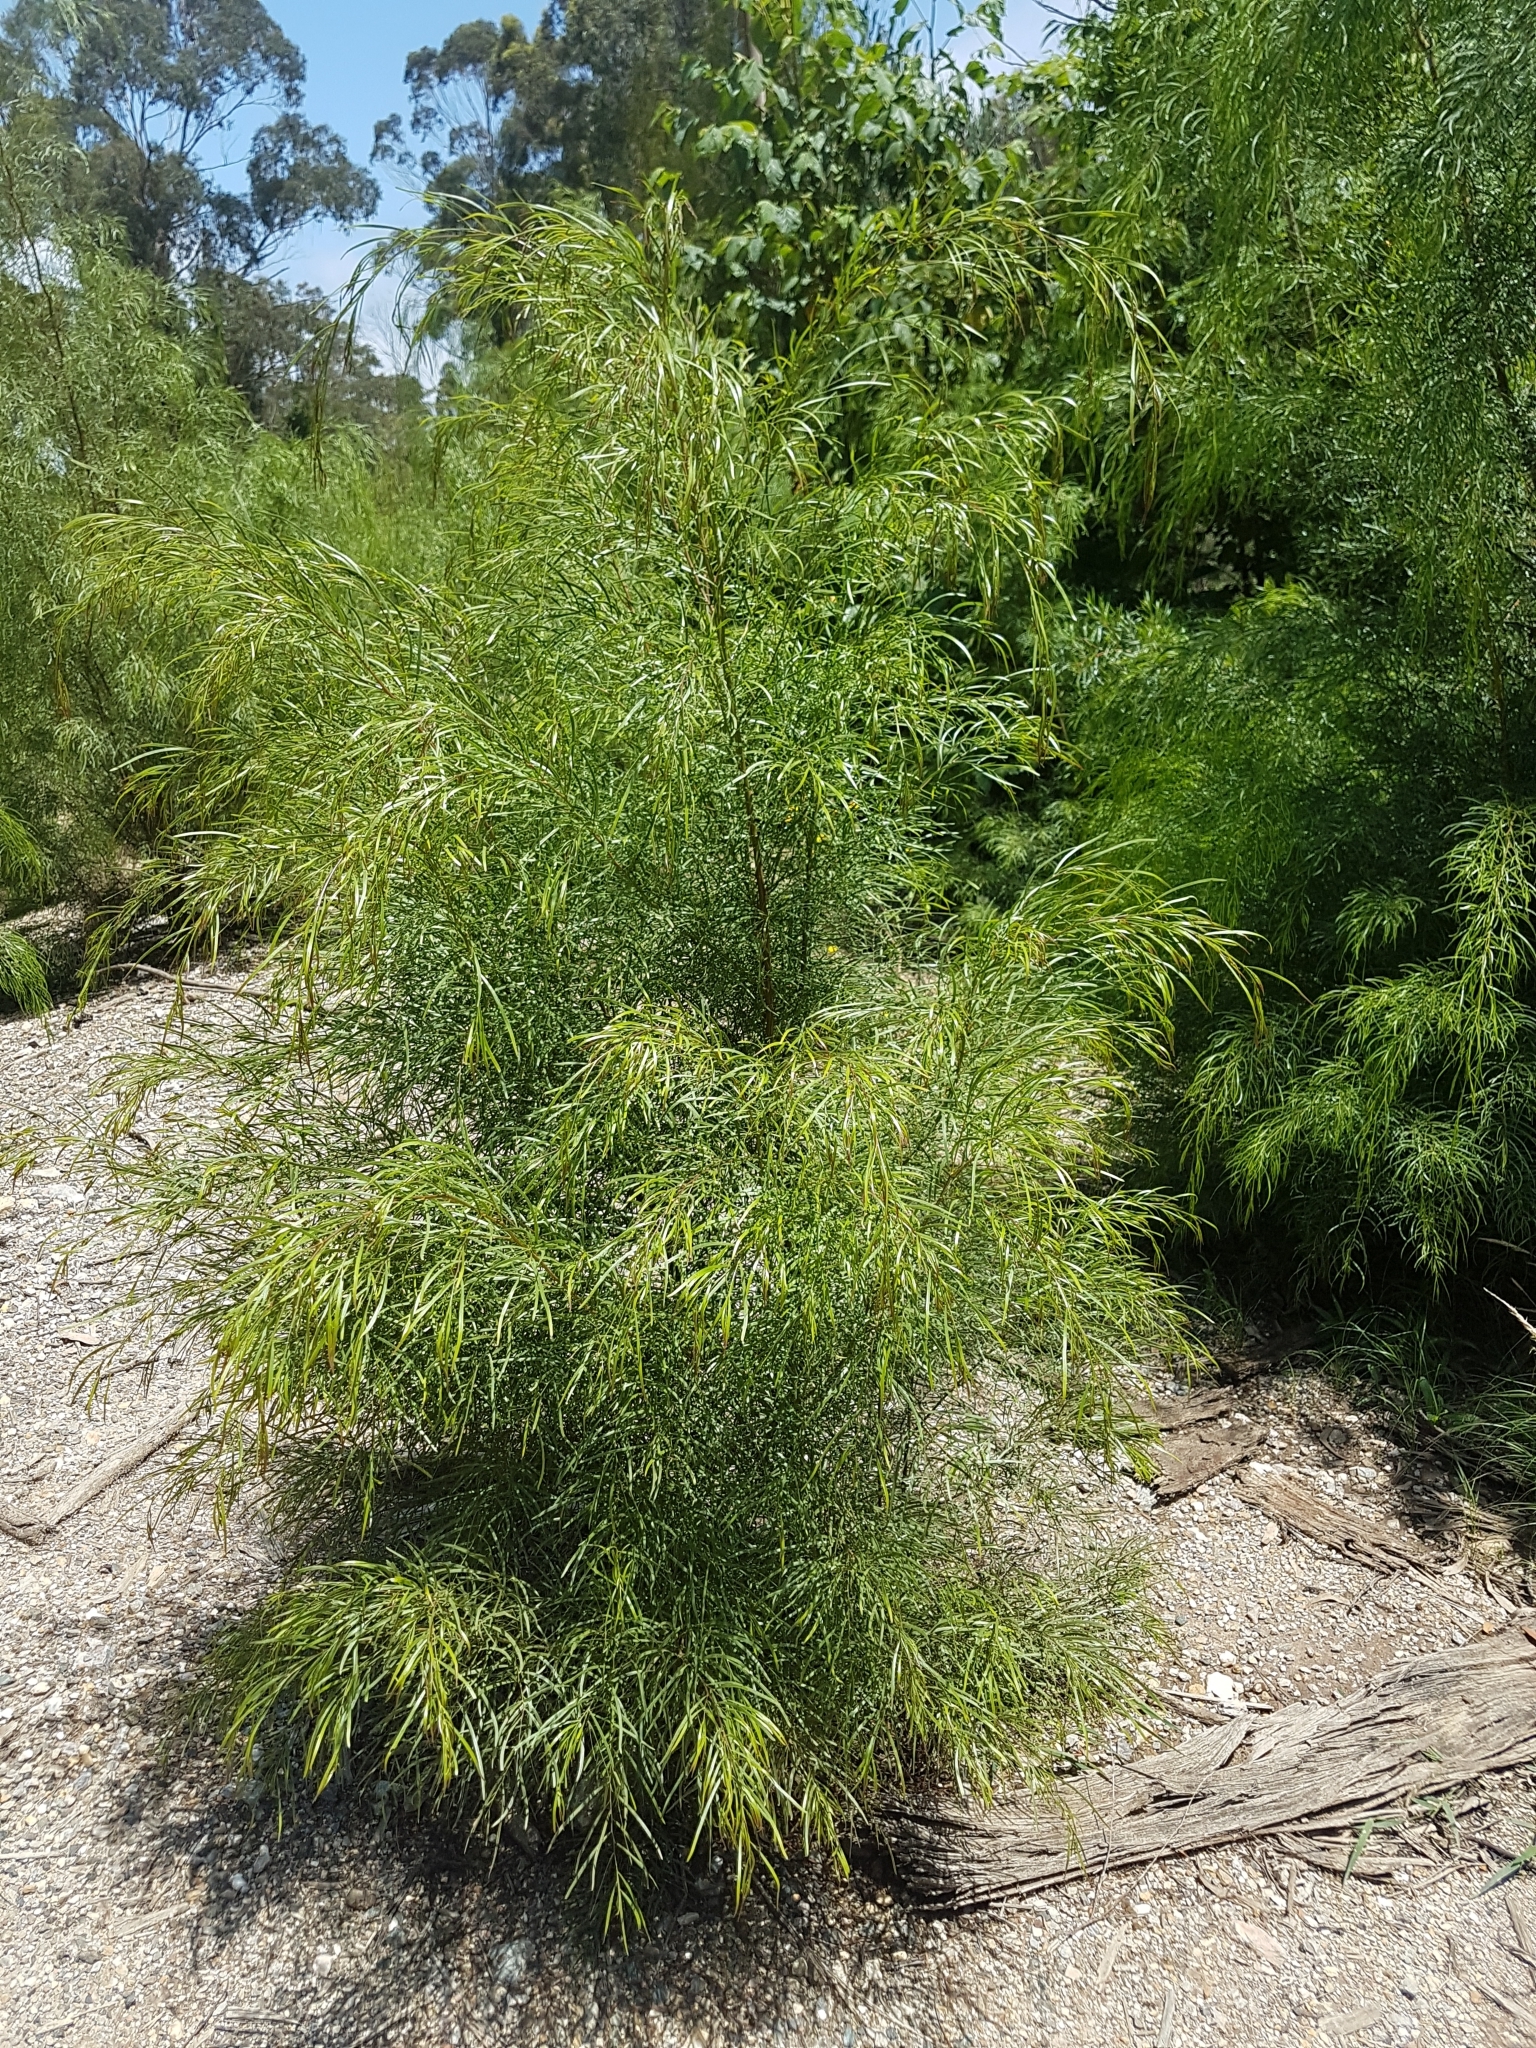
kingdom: Plantae
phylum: Tracheophyta
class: Magnoliopsida
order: Fabales
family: Fabaceae
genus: Acacia
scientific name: Acacia subporosa
